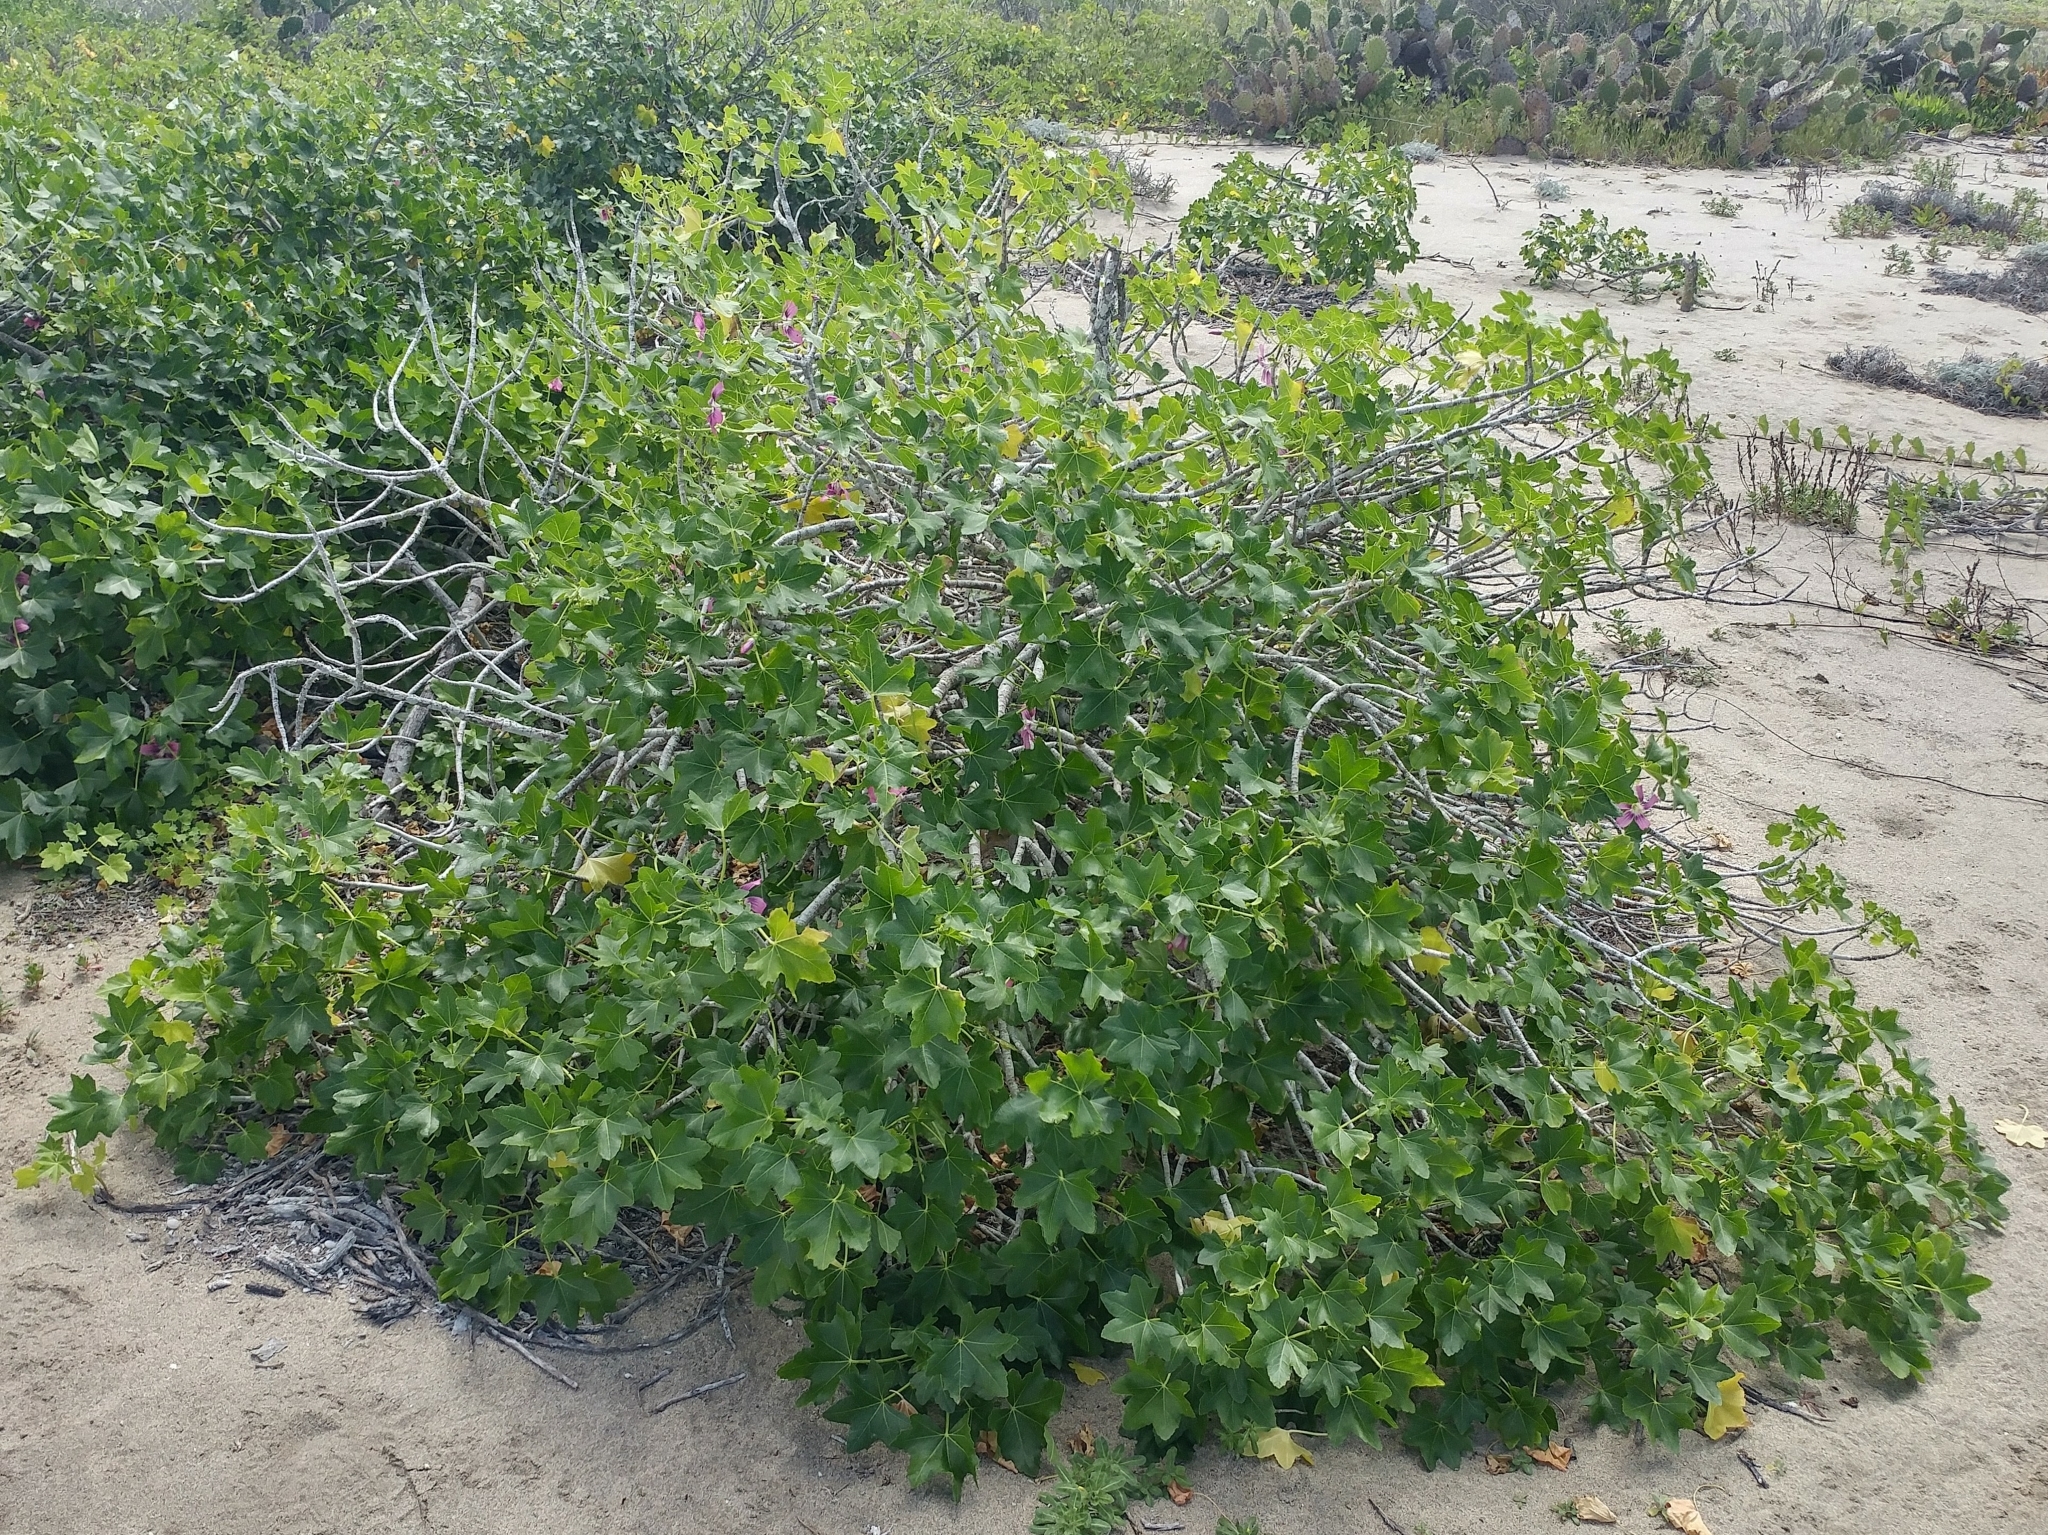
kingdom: Plantae
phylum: Tracheophyta
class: Magnoliopsida
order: Malvales
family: Malvaceae
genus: Malva
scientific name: Malva assurgentiflora
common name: Island mallow
